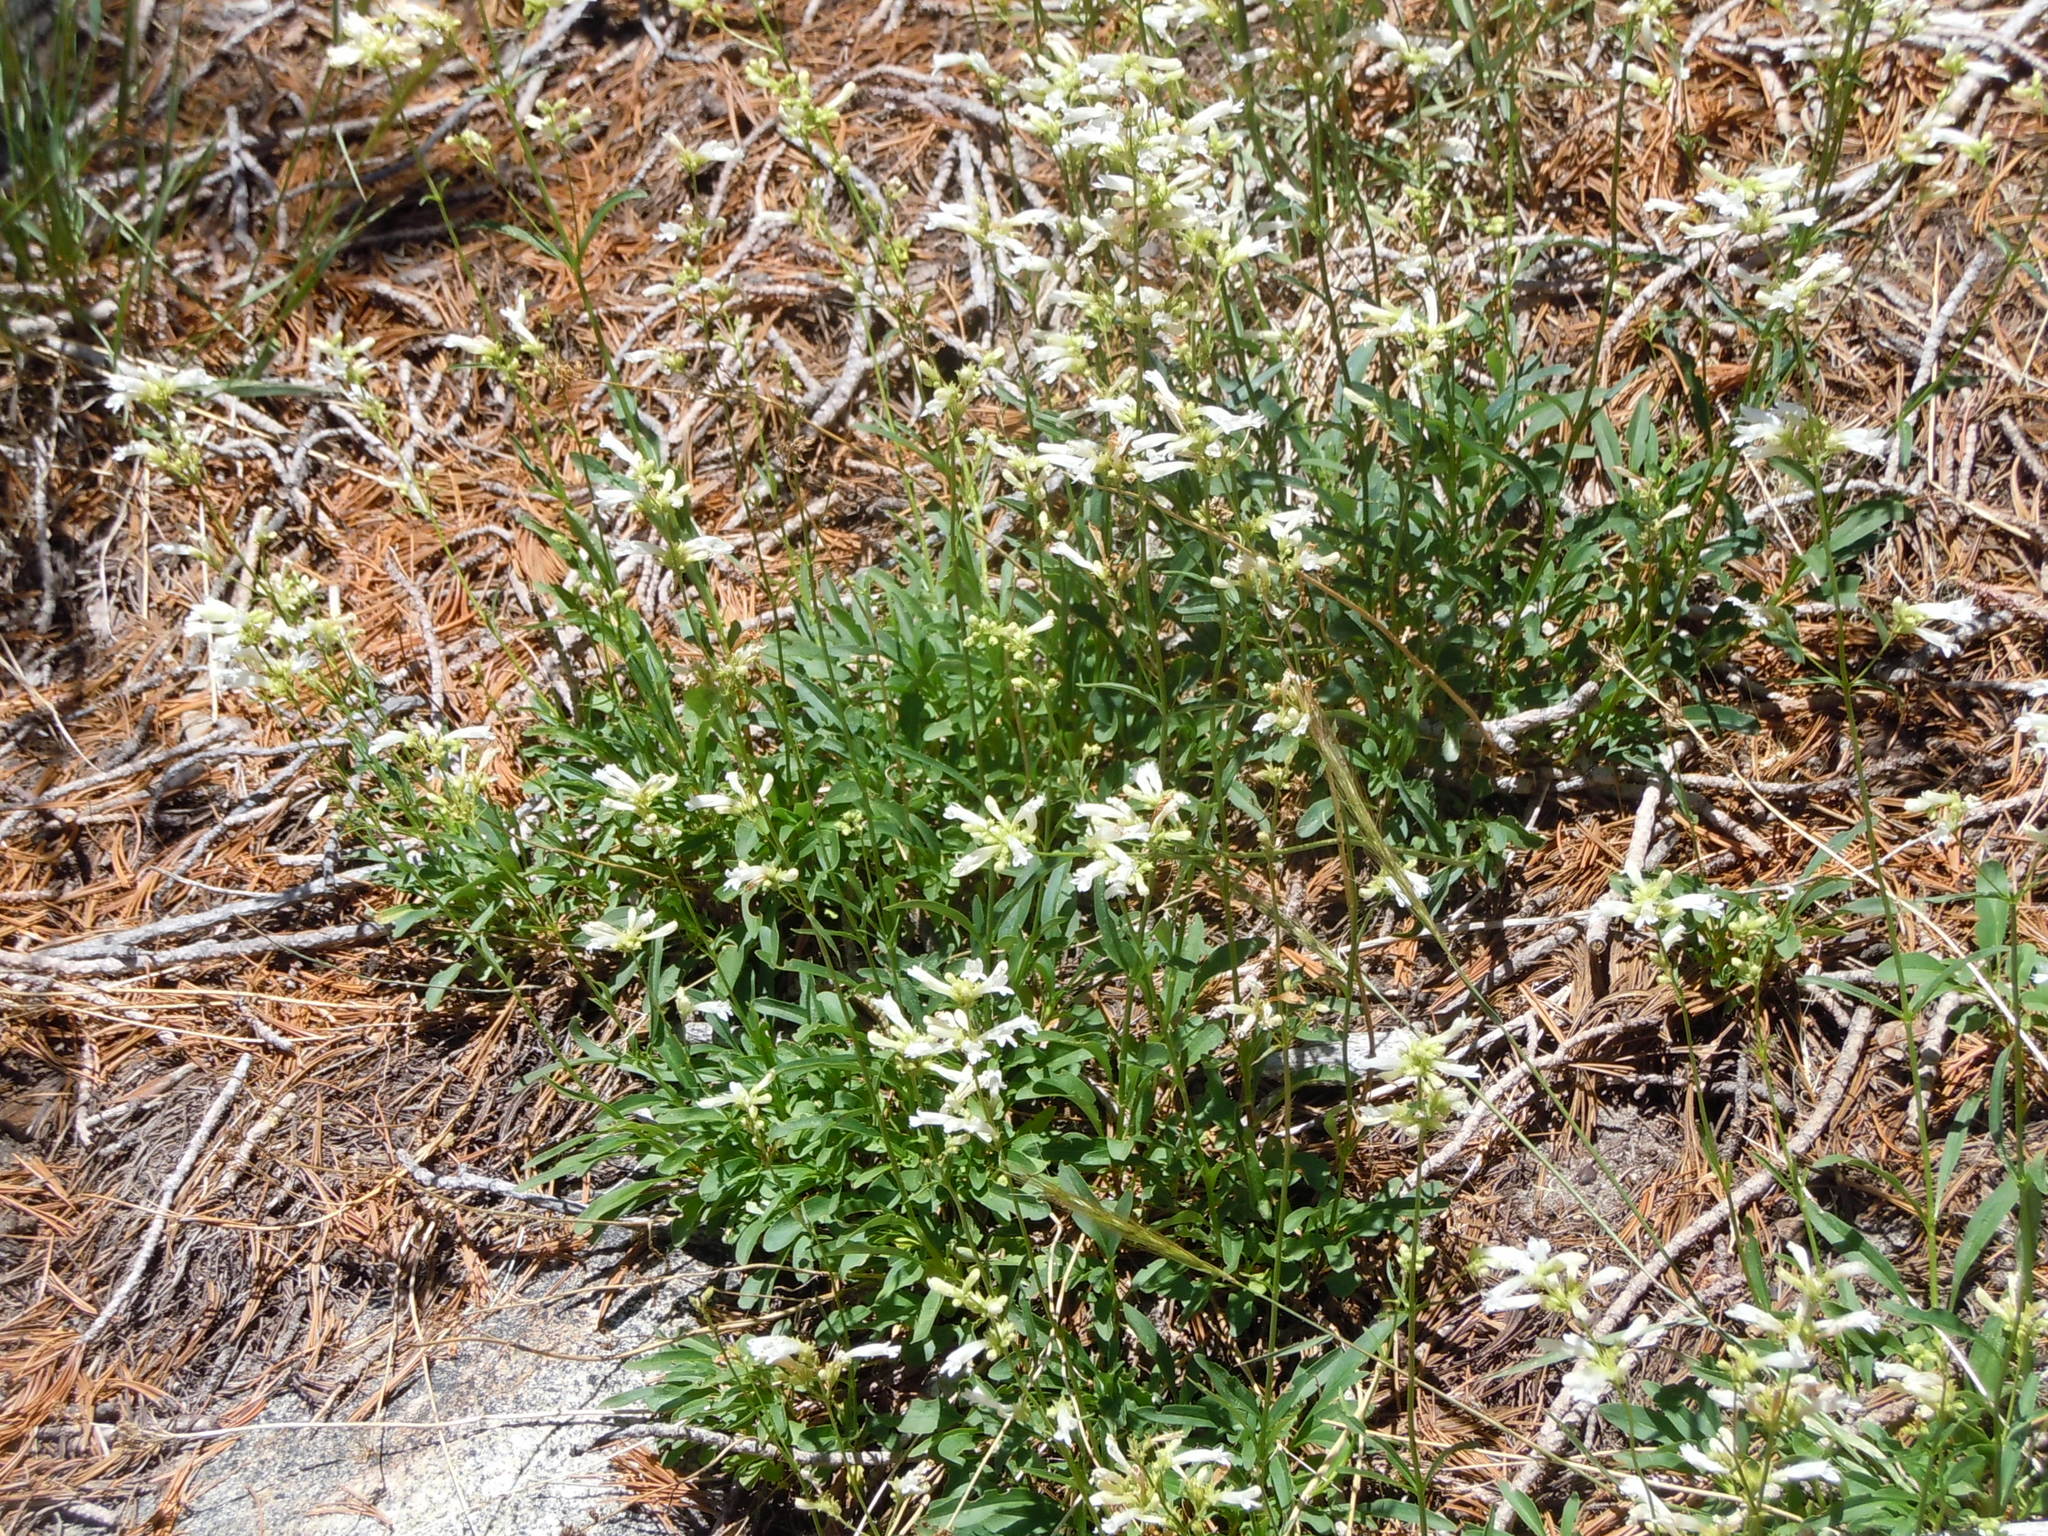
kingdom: Plantae
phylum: Tracheophyta
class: Magnoliopsida
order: Lamiales
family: Plantaginaceae
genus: Penstemon
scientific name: Penstemon heterodoxus
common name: Sierran penstemon
